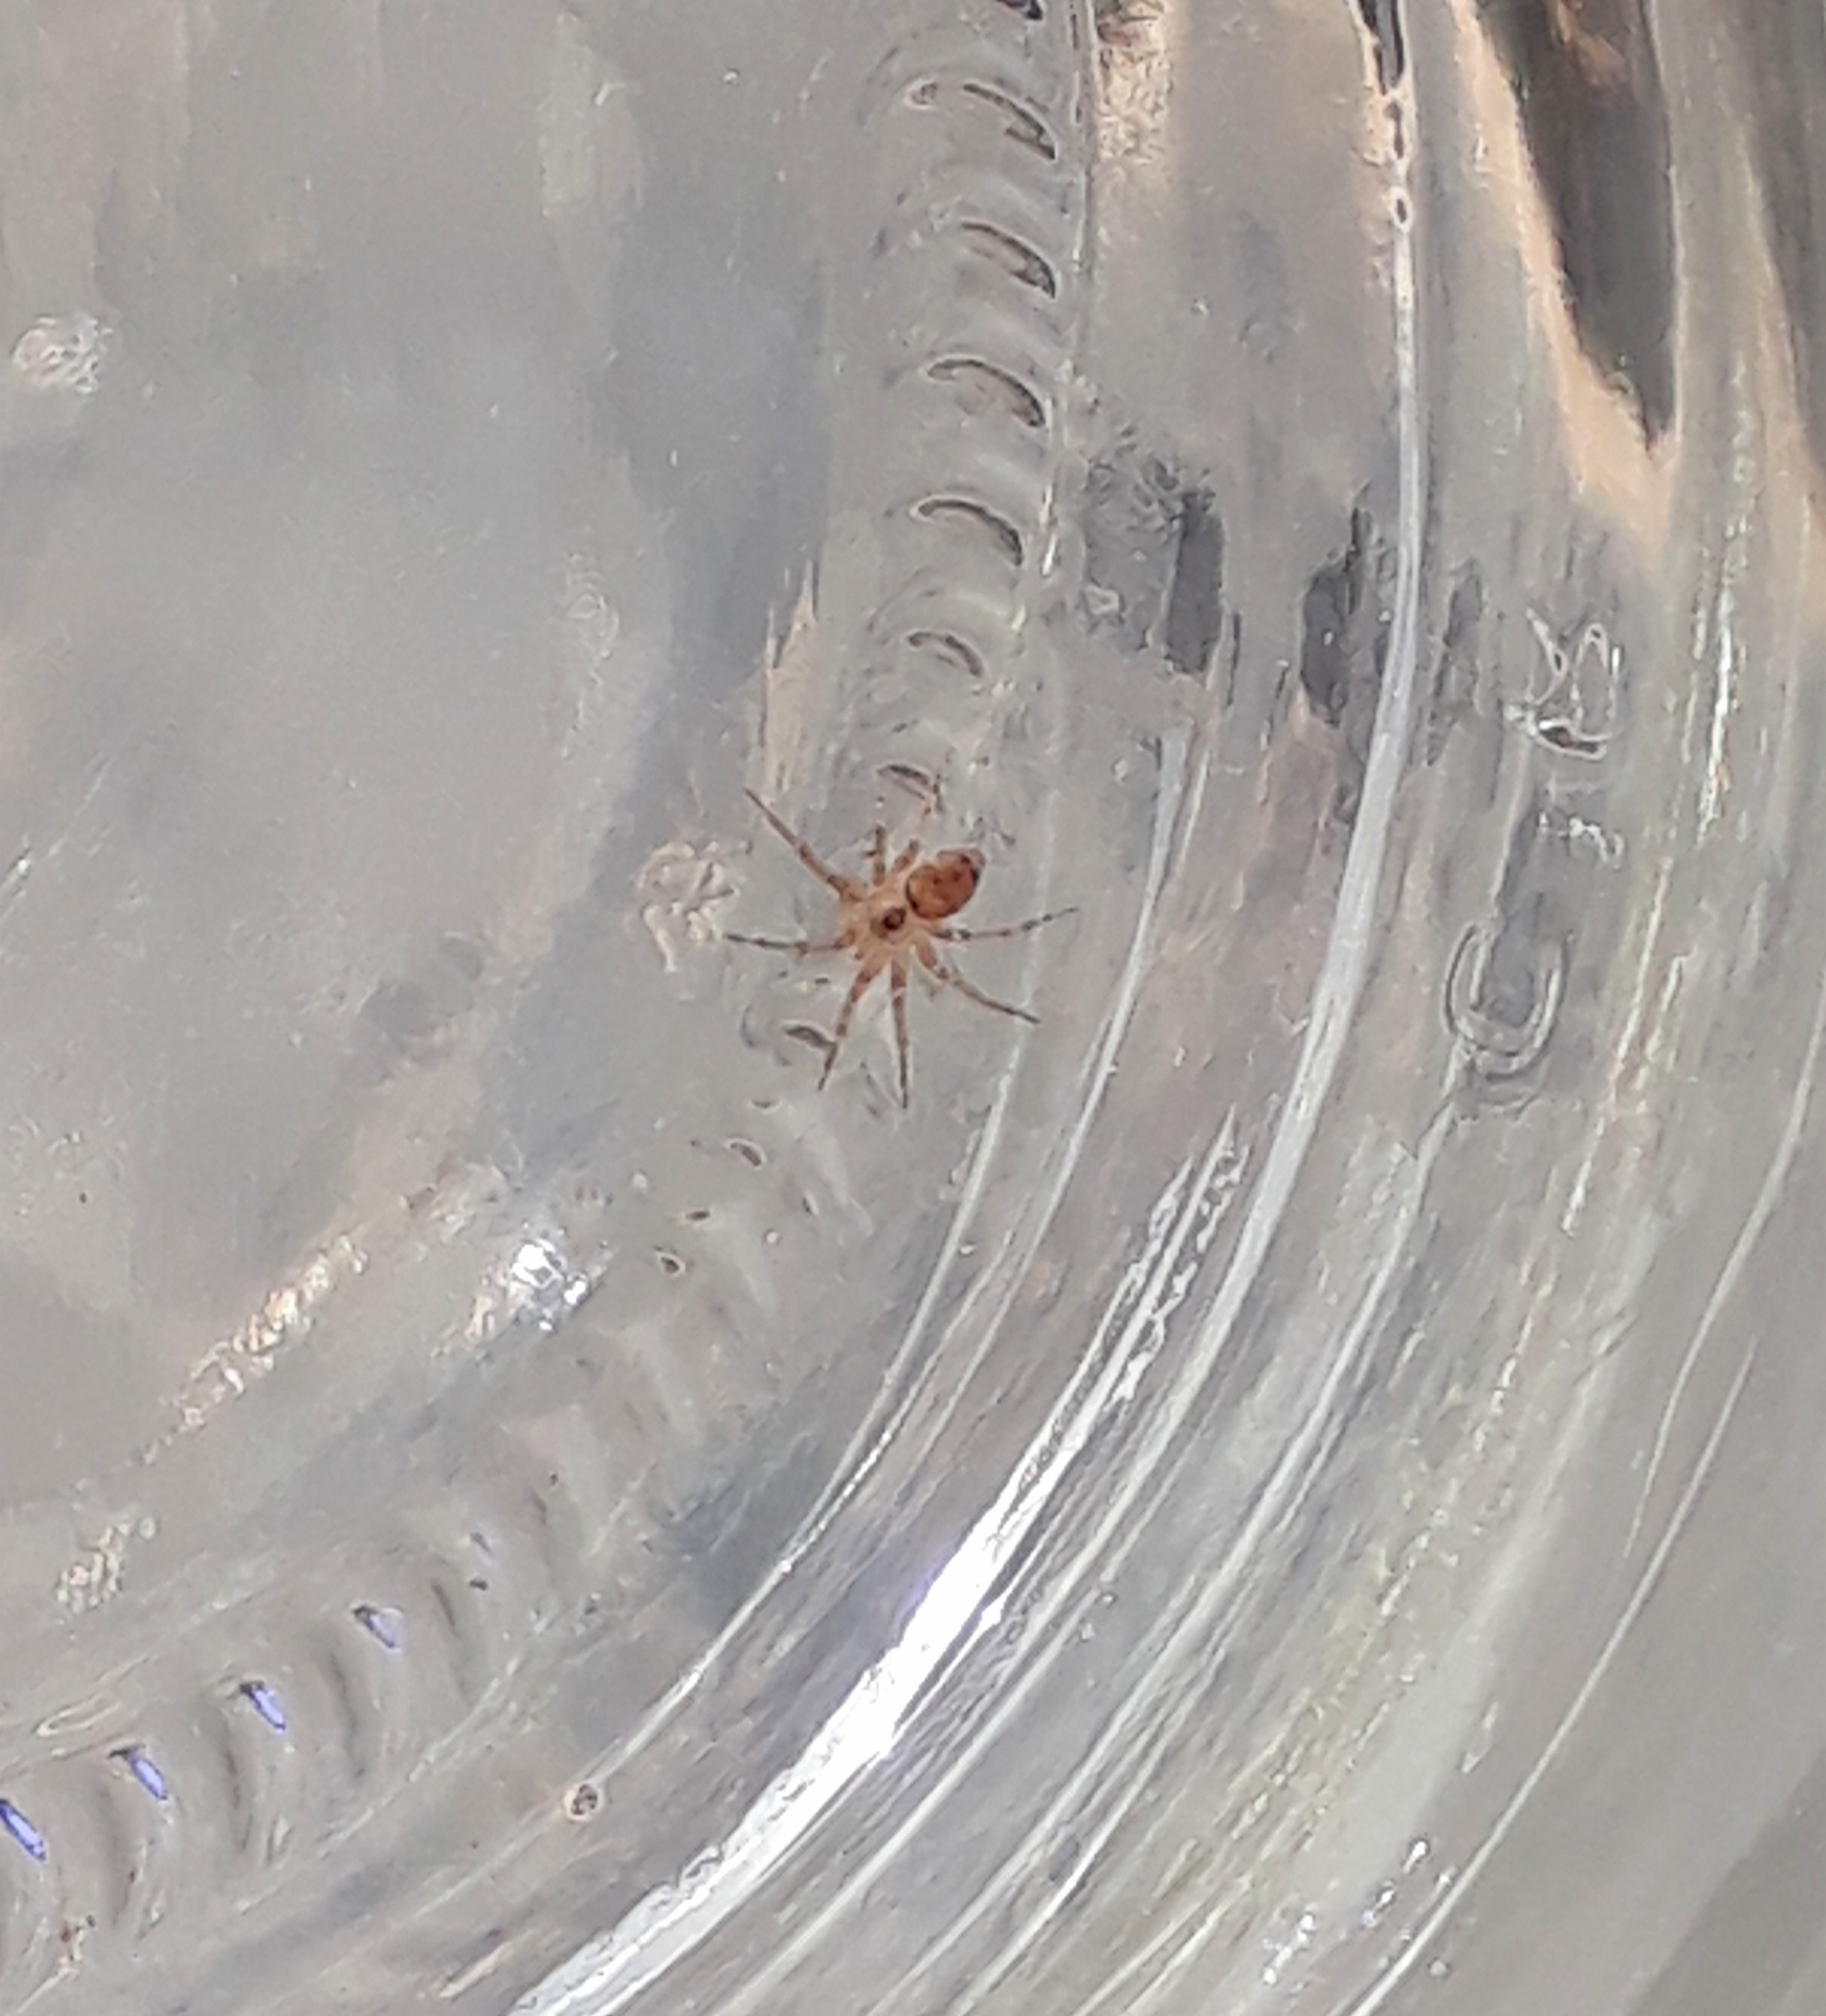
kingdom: Animalia
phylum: Arthropoda
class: Arachnida
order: Araneae
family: Oecobiidae
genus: Oecobius
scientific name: Oecobius navus
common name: Flatmesh weaver
